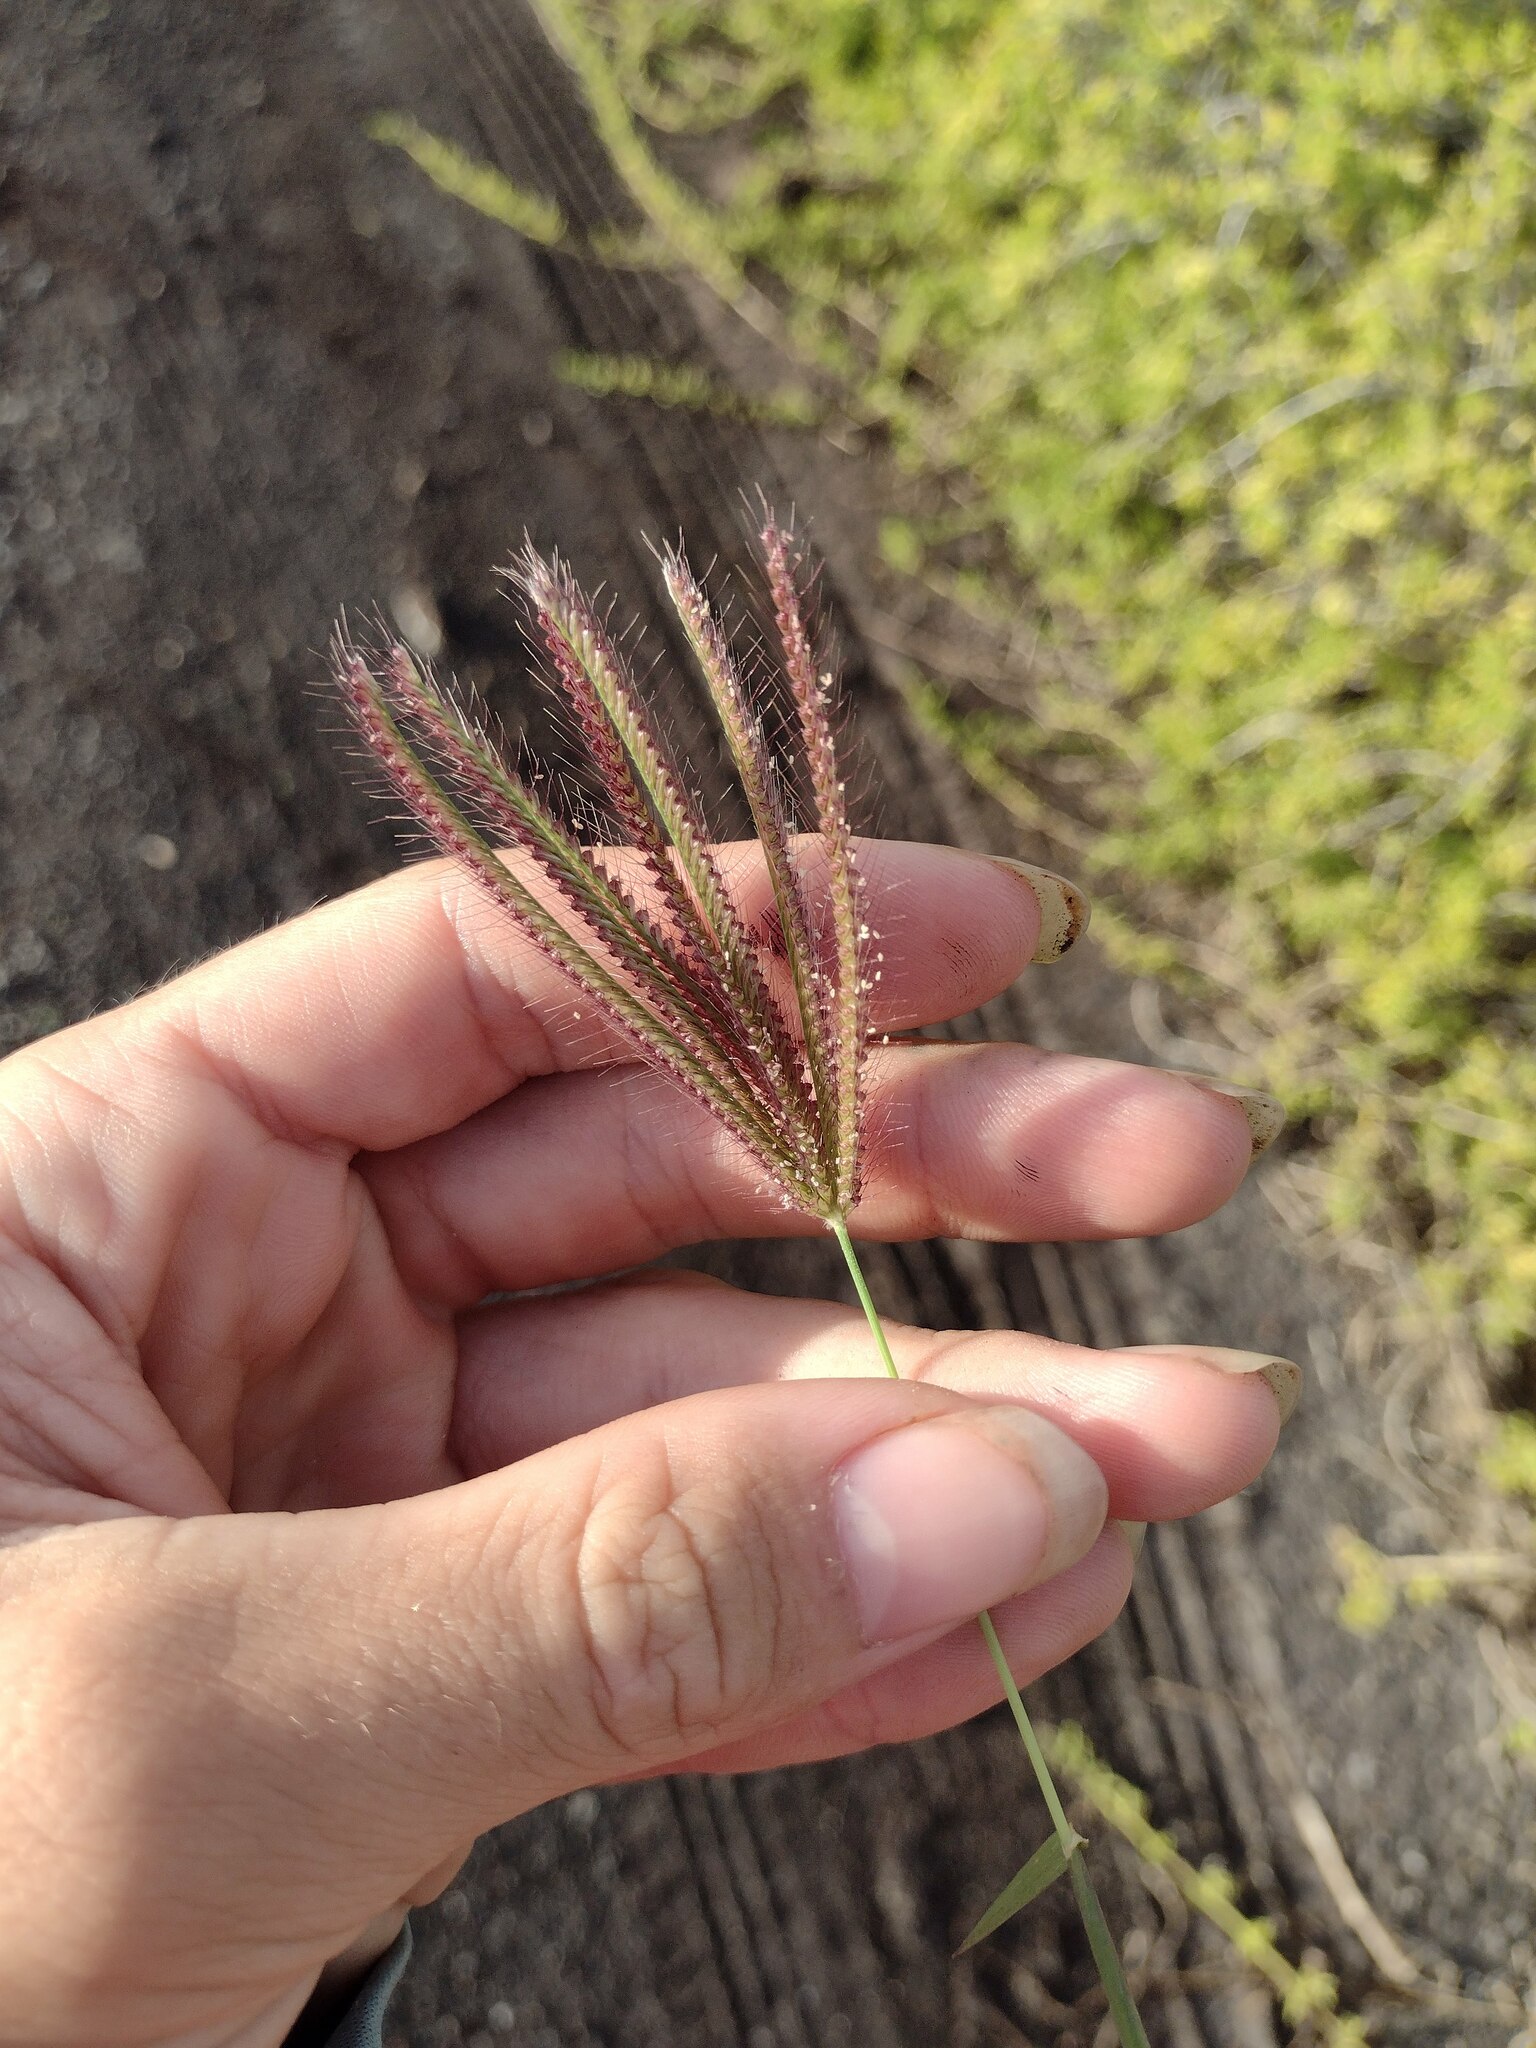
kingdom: Plantae
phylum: Tracheophyta
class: Liliopsida
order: Poales
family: Poaceae
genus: Chloris
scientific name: Chloris barbata
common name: Swollen fingergrass
